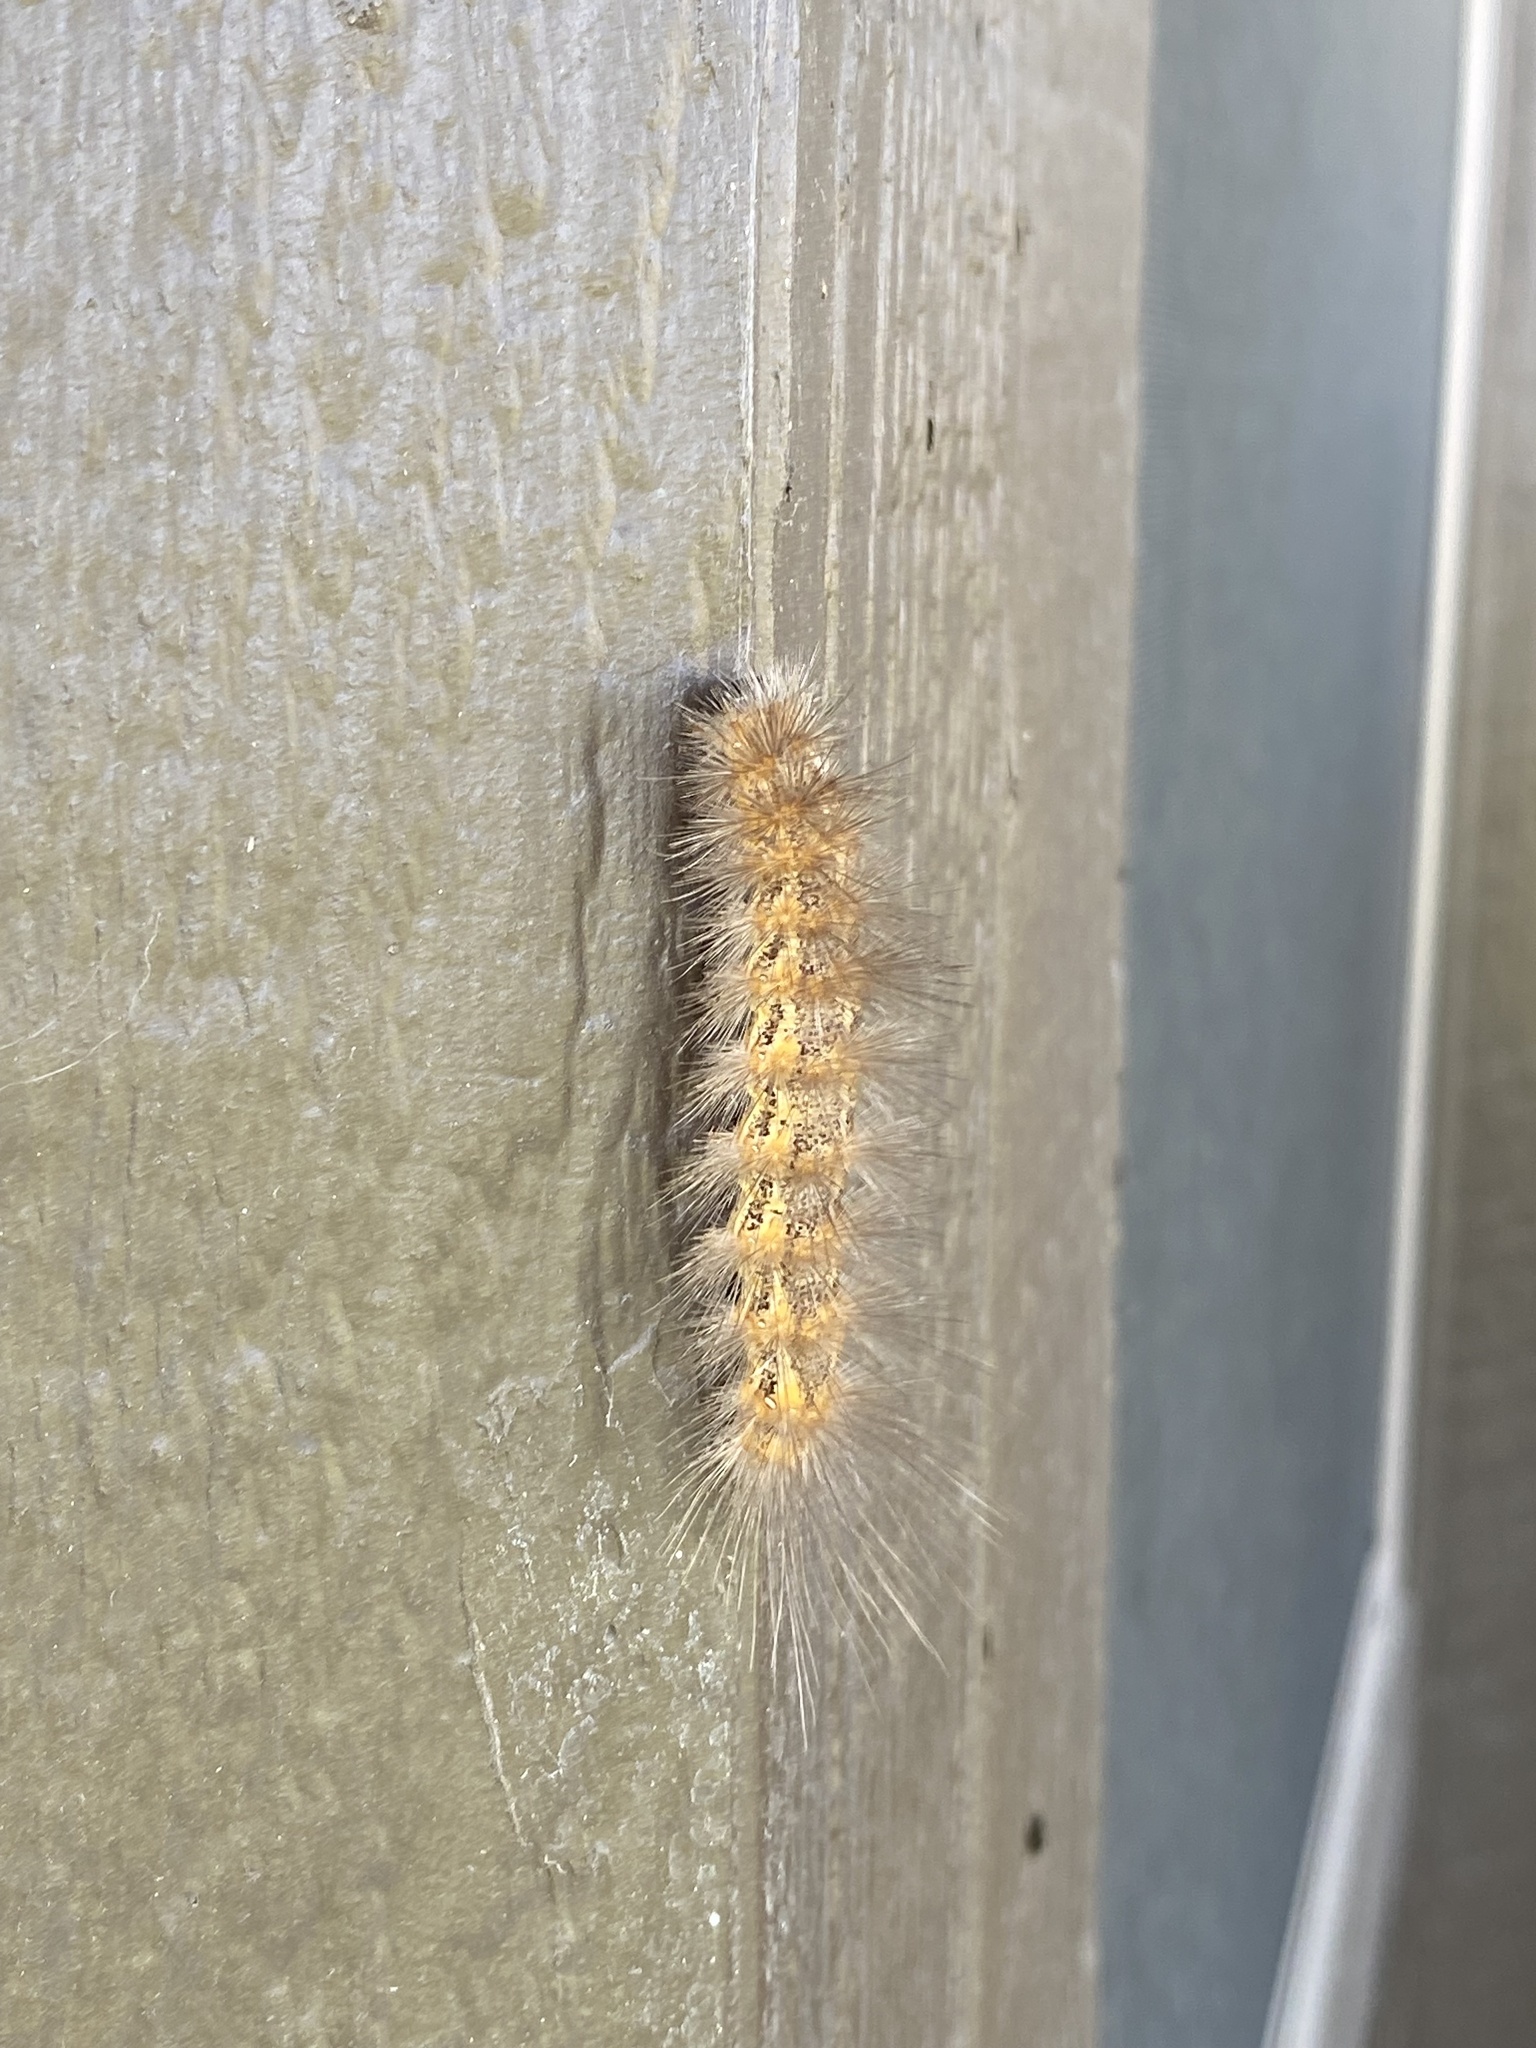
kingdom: Animalia
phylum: Arthropoda
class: Insecta
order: Lepidoptera
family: Erebidae
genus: Estigmene
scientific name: Estigmene acrea
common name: Salt marsh moth
